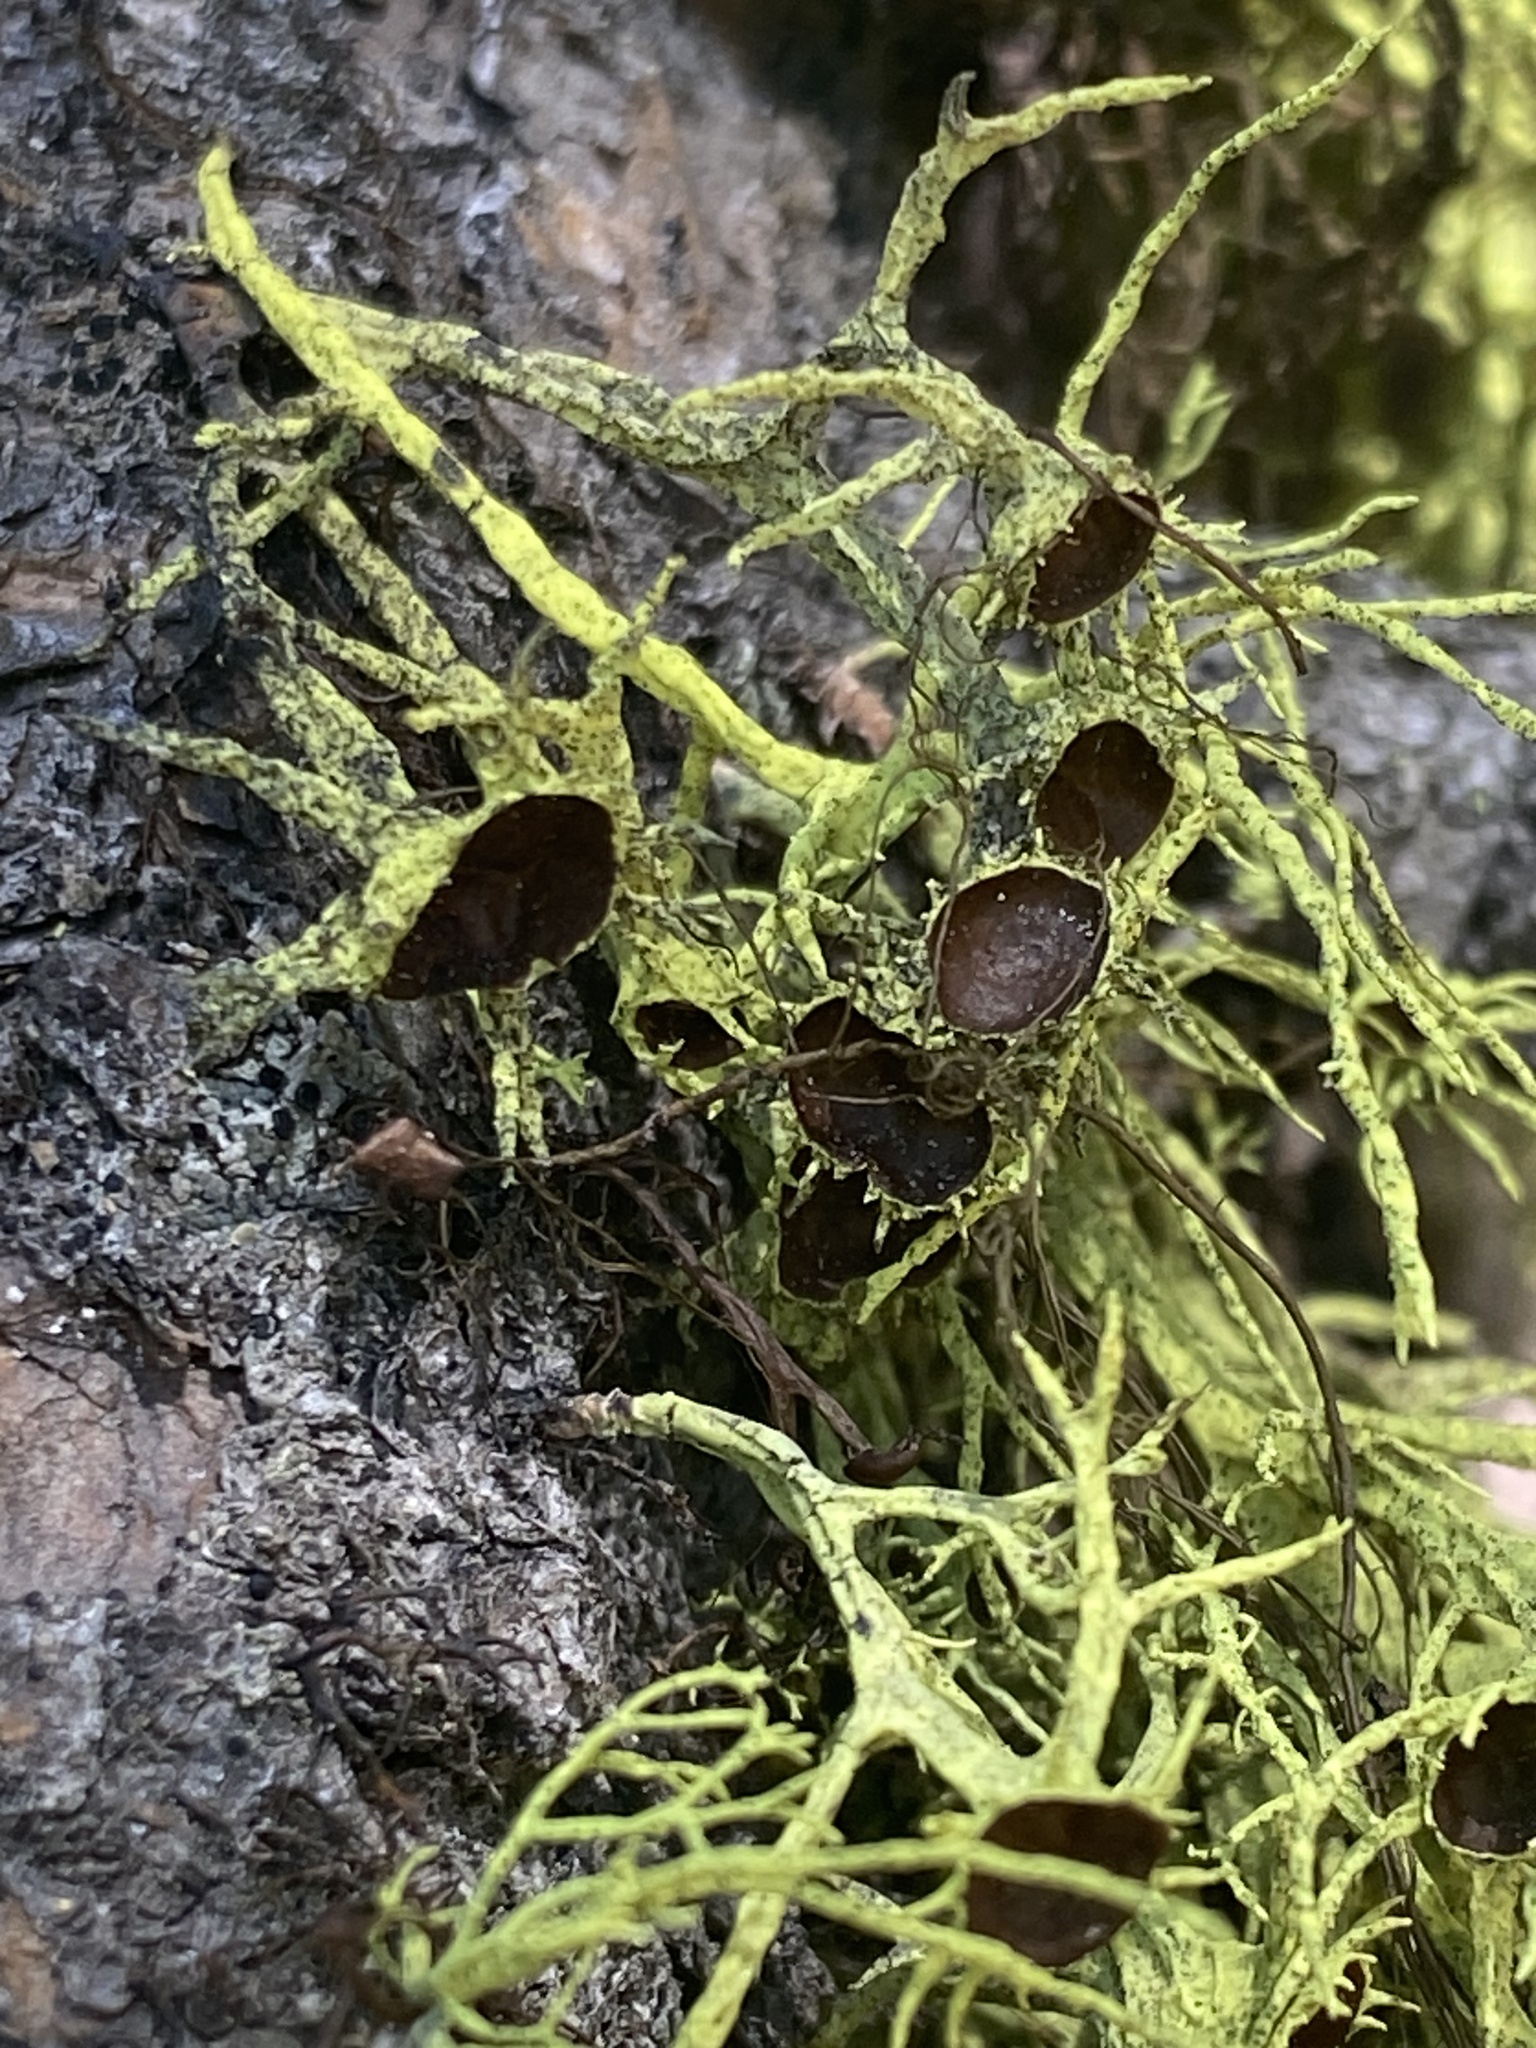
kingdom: Fungi
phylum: Ascomycota
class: Lecanoromycetes
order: Lecanorales
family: Parmeliaceae
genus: Letharia
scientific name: Letharia columbiana
